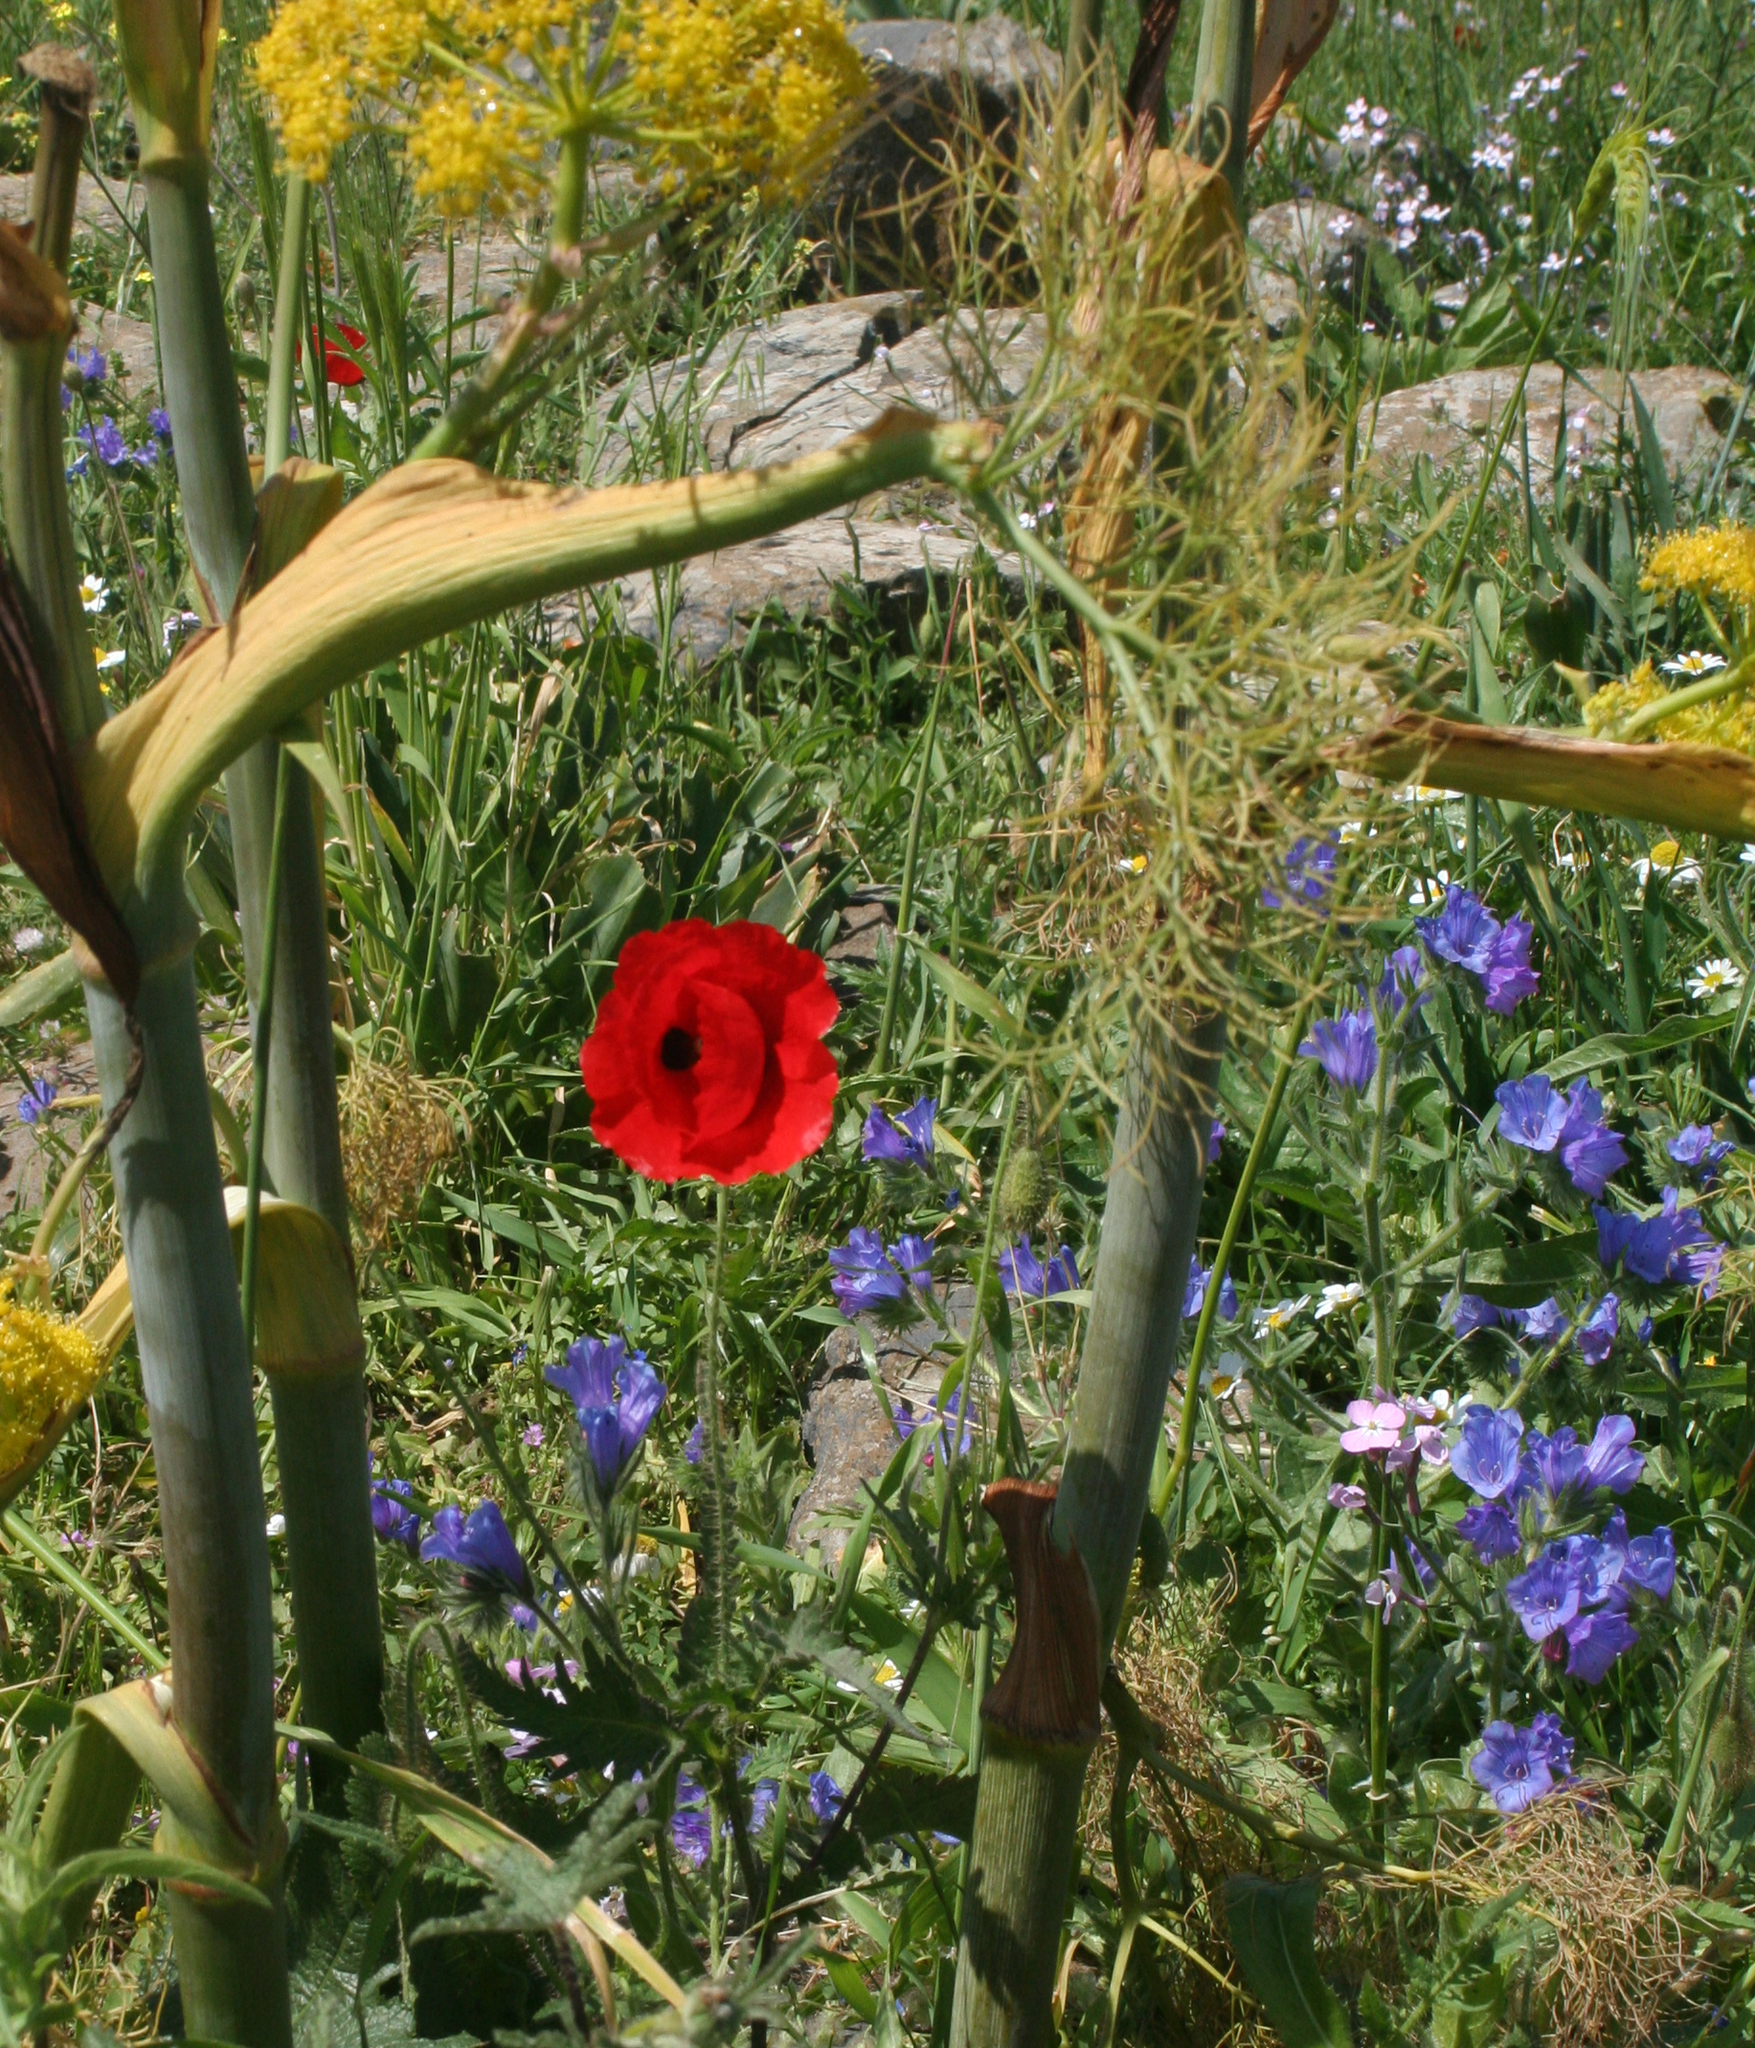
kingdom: Plantae
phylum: Tracheophyta
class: Magnoliopsida
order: Boraginales
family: Boraginaceae
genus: Echium
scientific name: Echium plantagineum
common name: Purple viper's-bugloss
